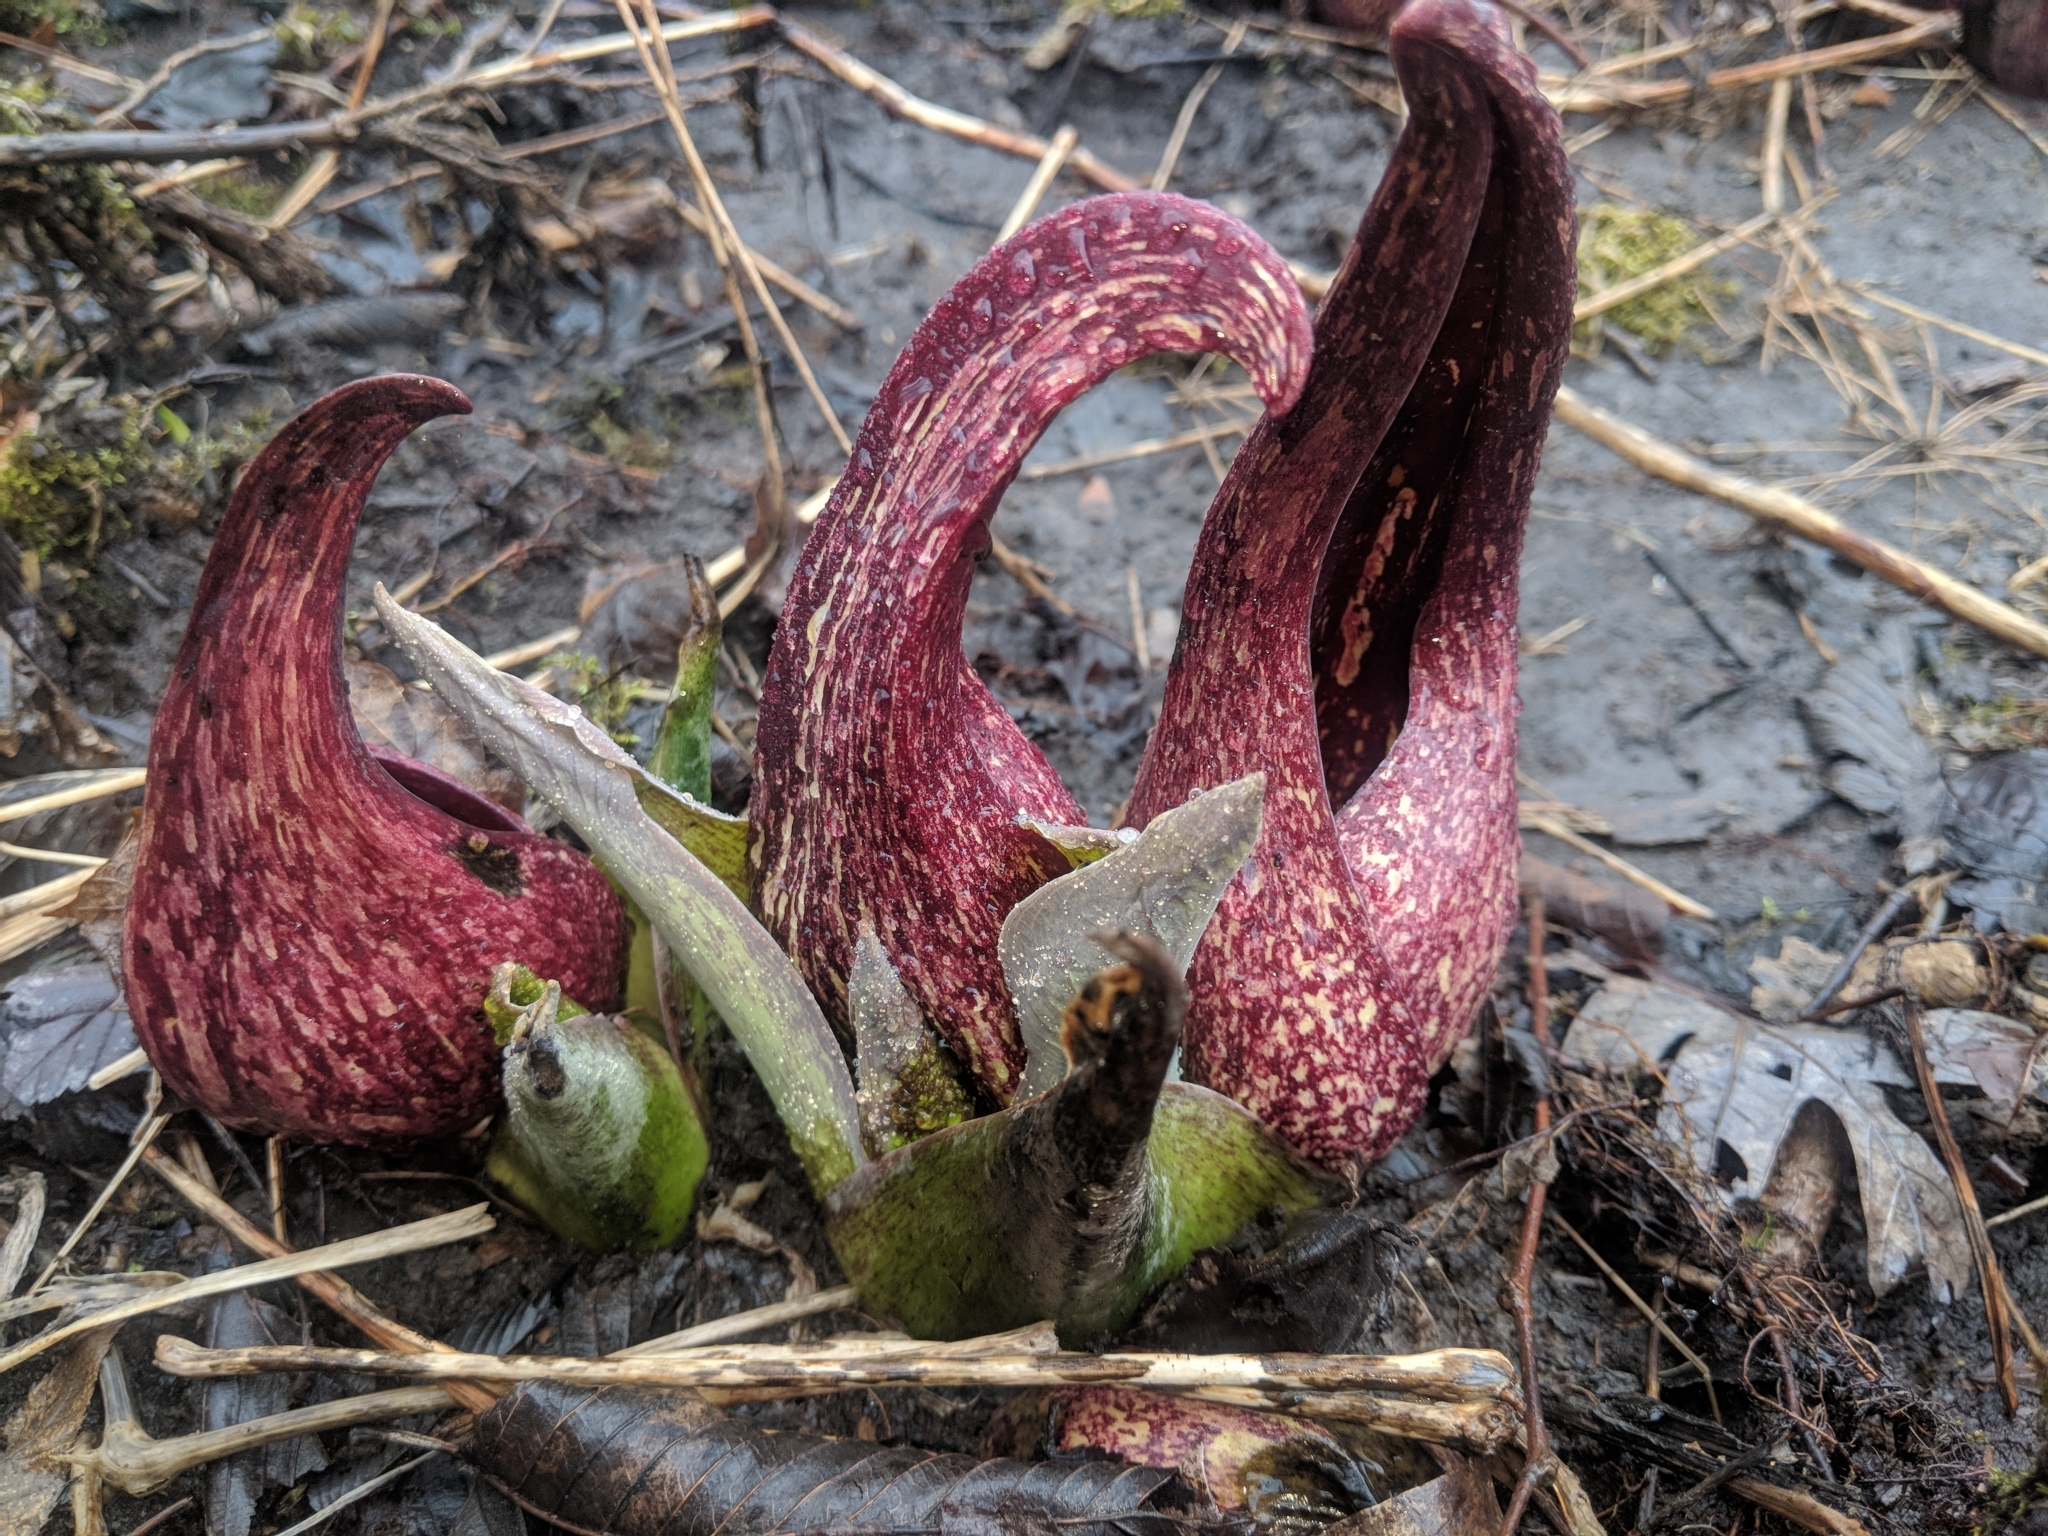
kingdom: Plantae
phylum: Tracheophyta
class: Liliopsida
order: Alismatales
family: Araceae
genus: Symplocarpus
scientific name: Symplocarpus foetidus
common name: Eastern skunk cabbage
